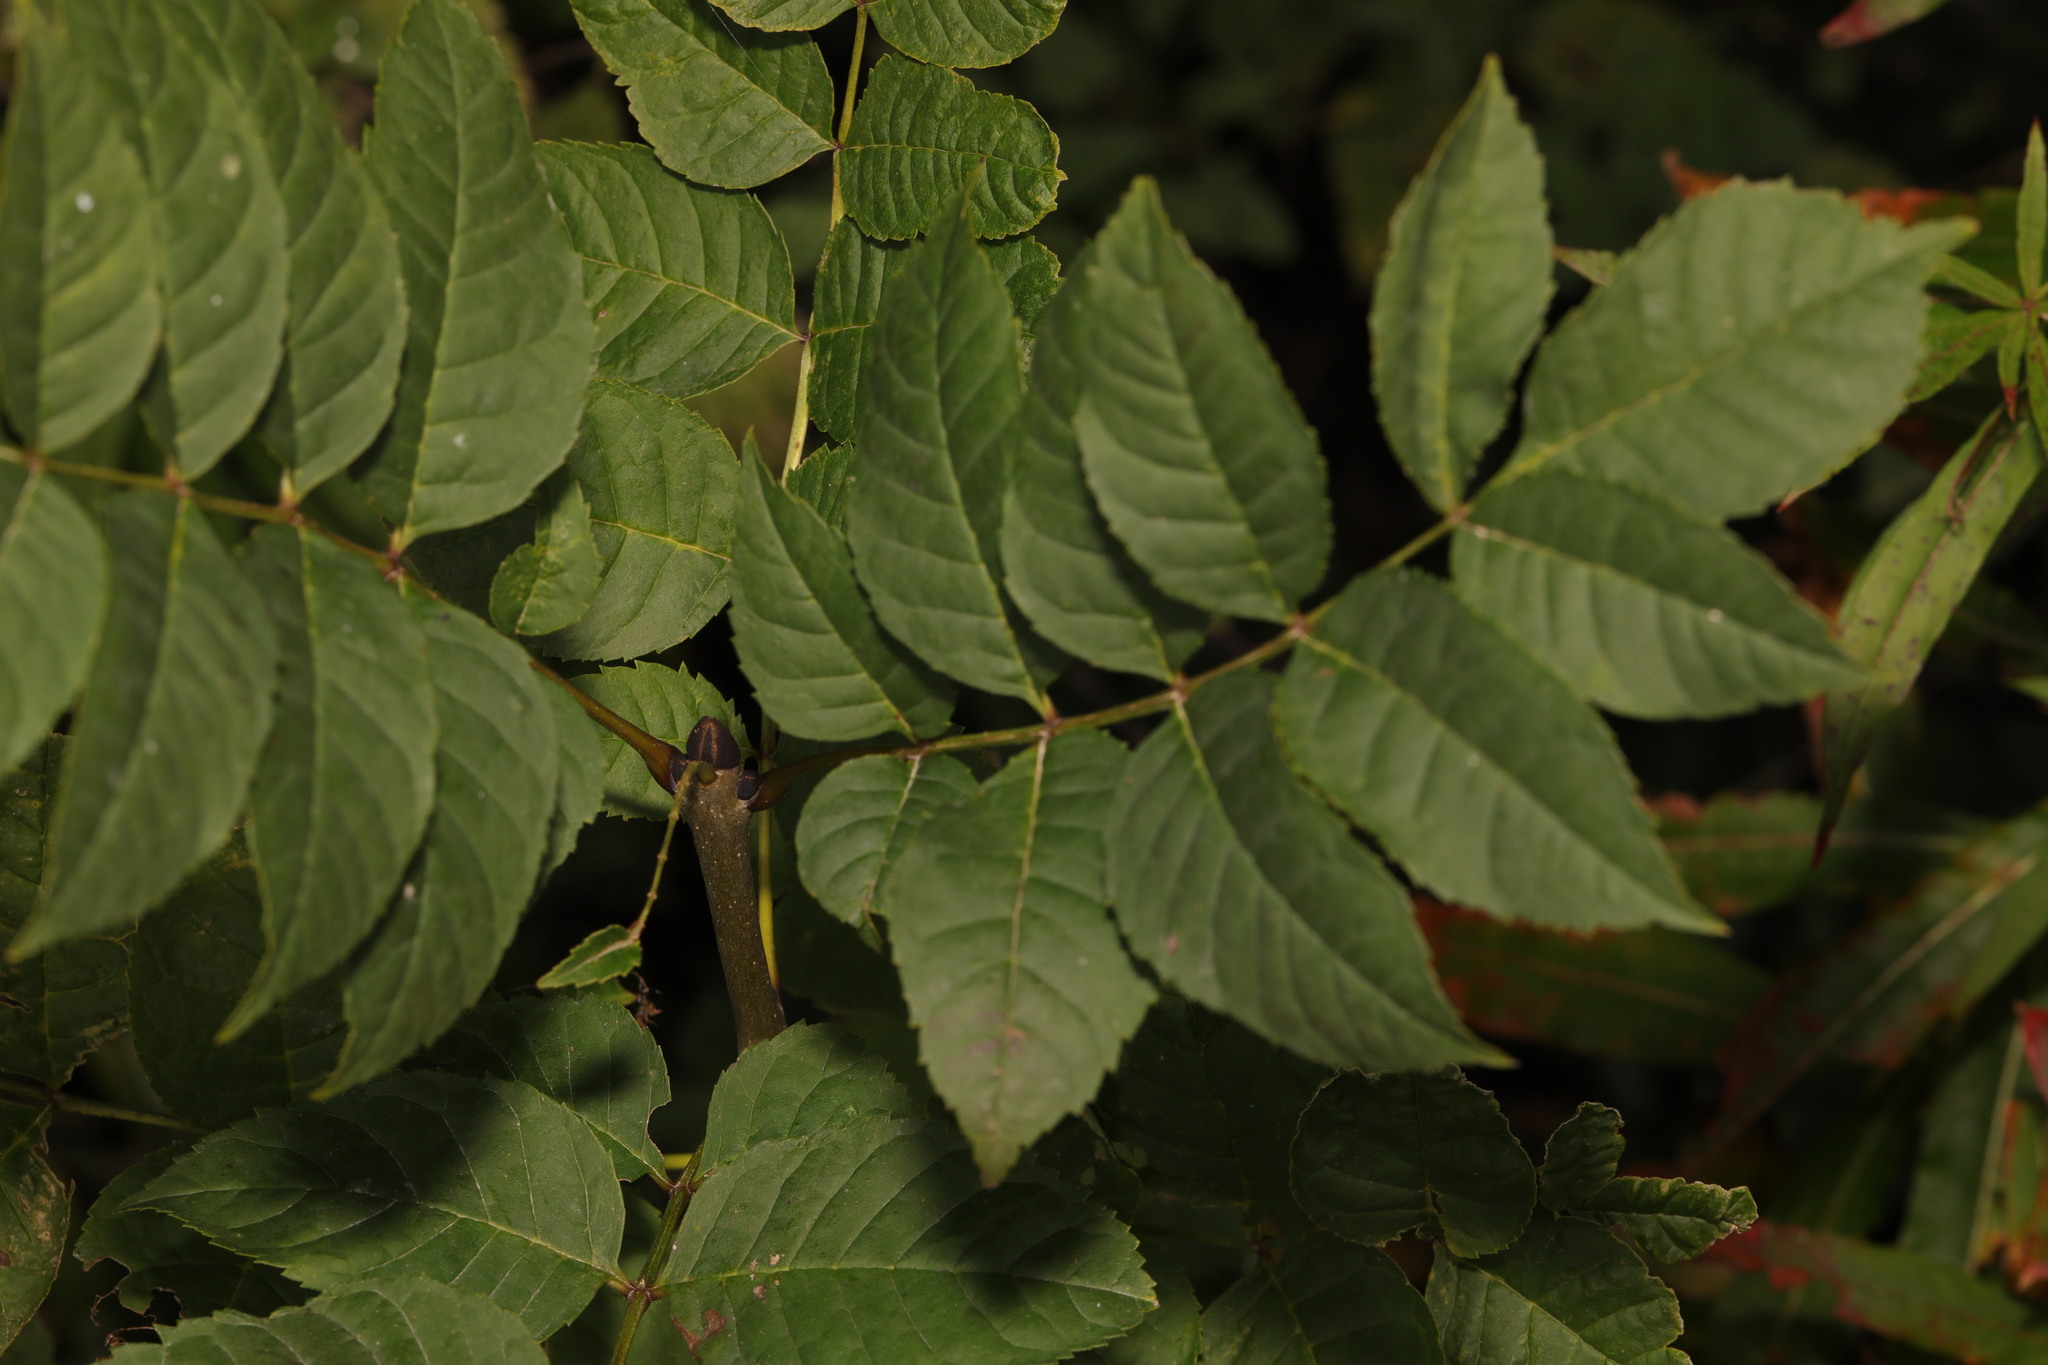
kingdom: Plantae
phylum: Tracheophyta
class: Magnoliopsida
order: Lamiales
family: Oleaceae
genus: Fraxinus
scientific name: Fraxinus excelsior
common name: European ash
